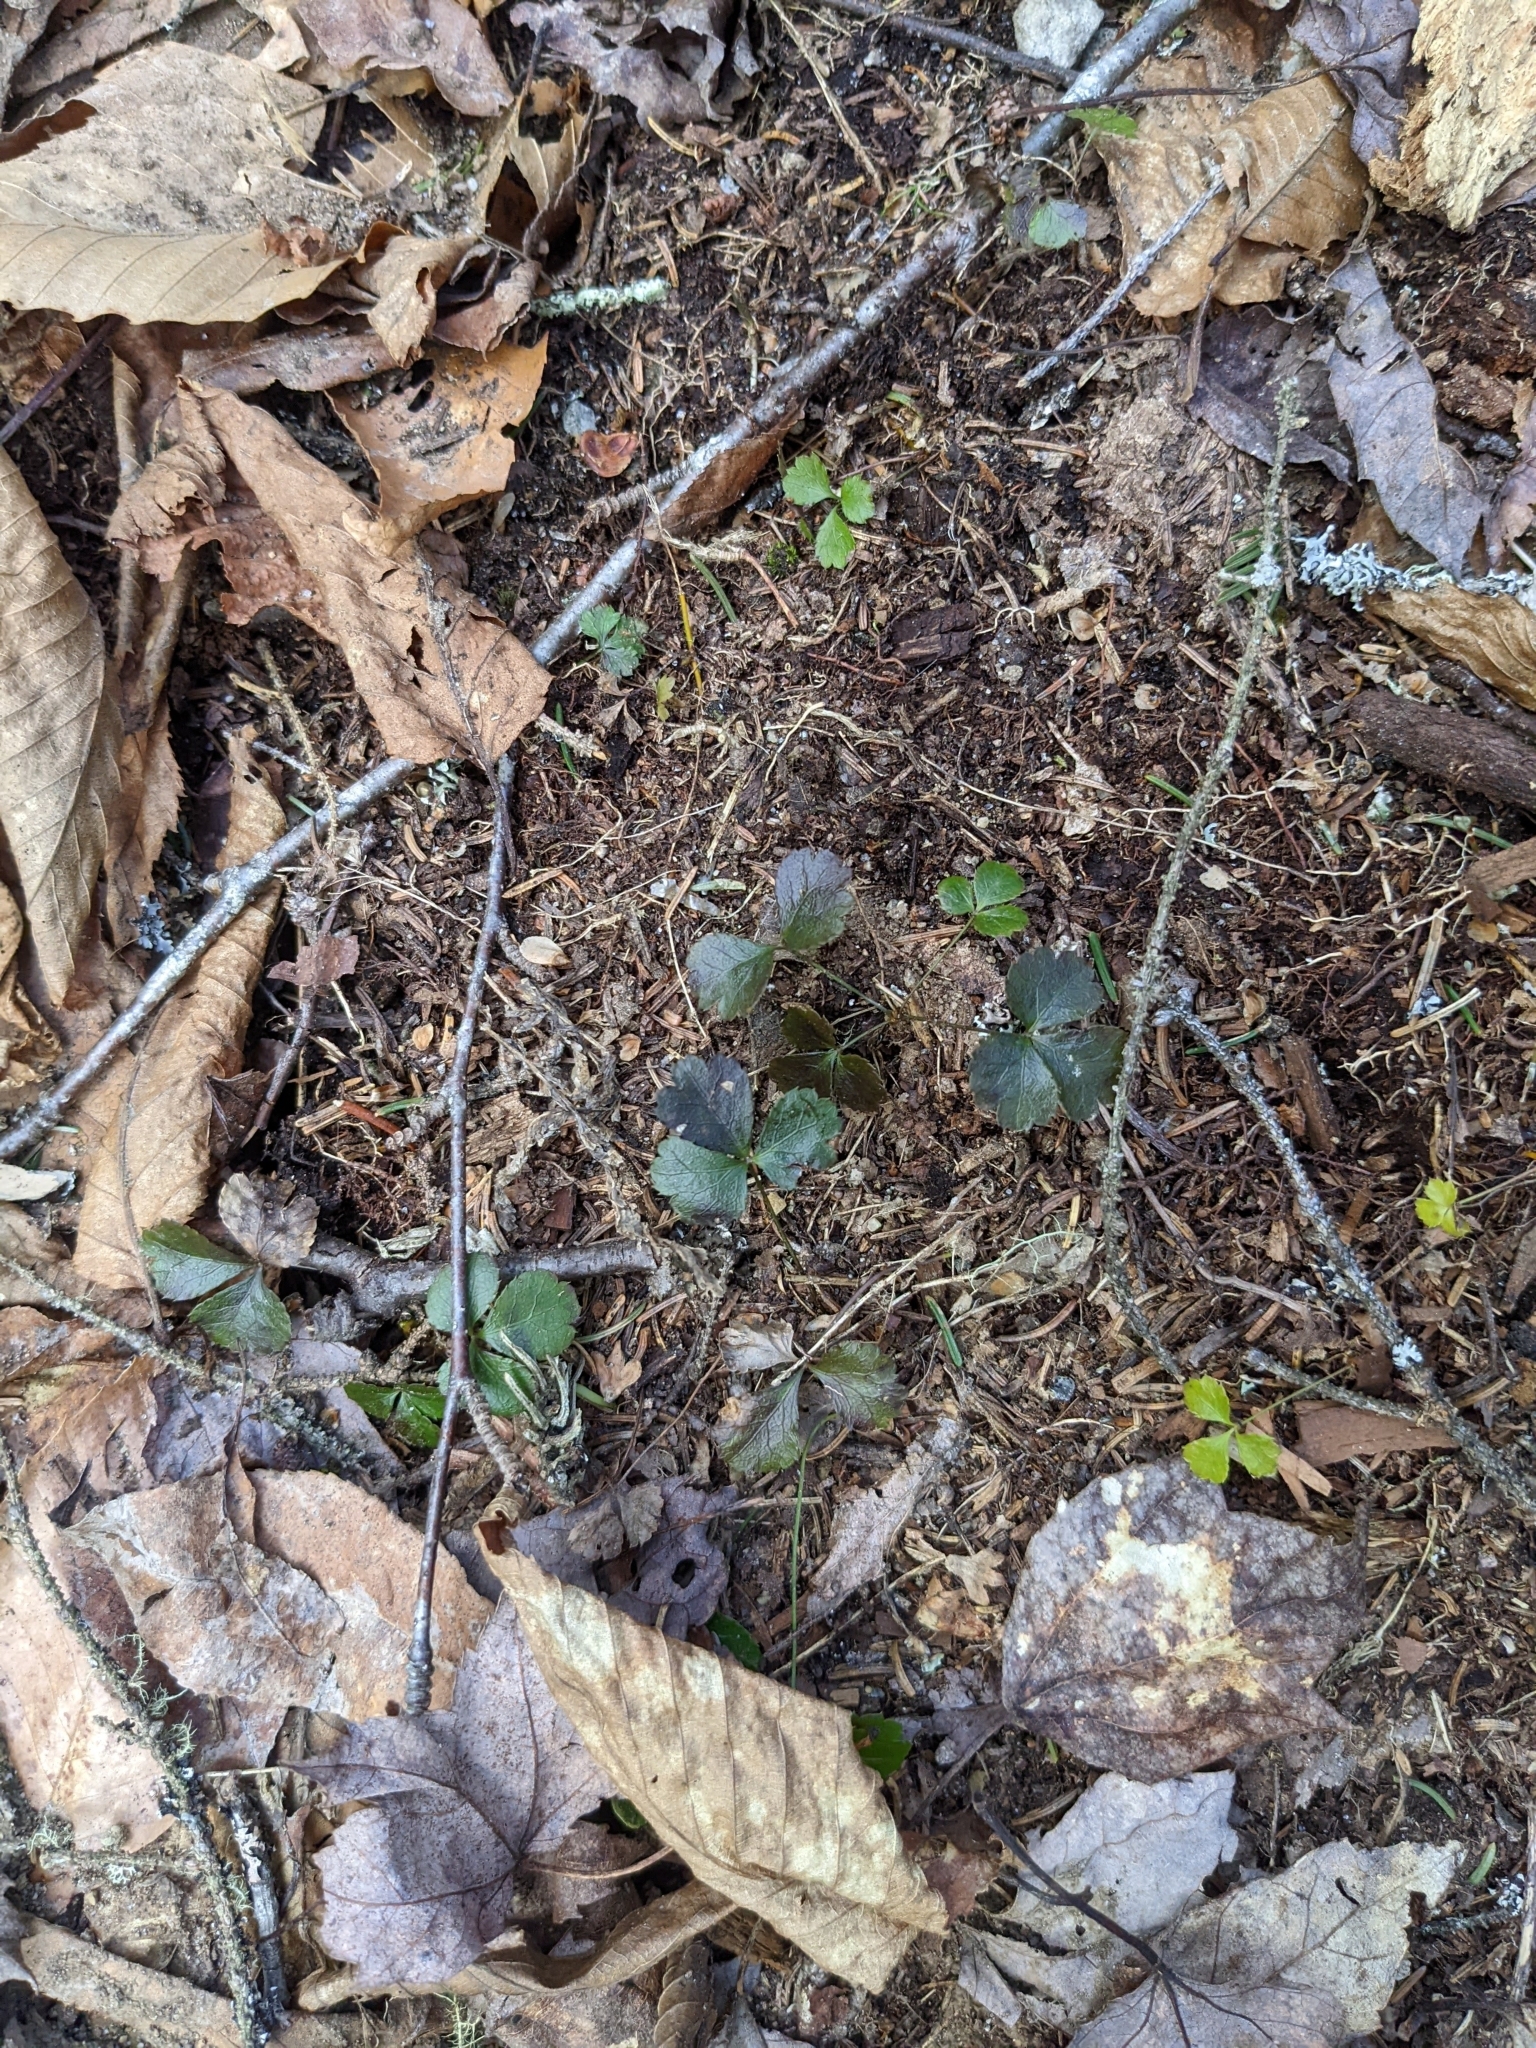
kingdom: Plantae
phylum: Tracheophyta
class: Magnoliopsida
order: Ranunculales
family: Ranunculaceae
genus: Coptis
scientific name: Coptis trifolia
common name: Canker-root
